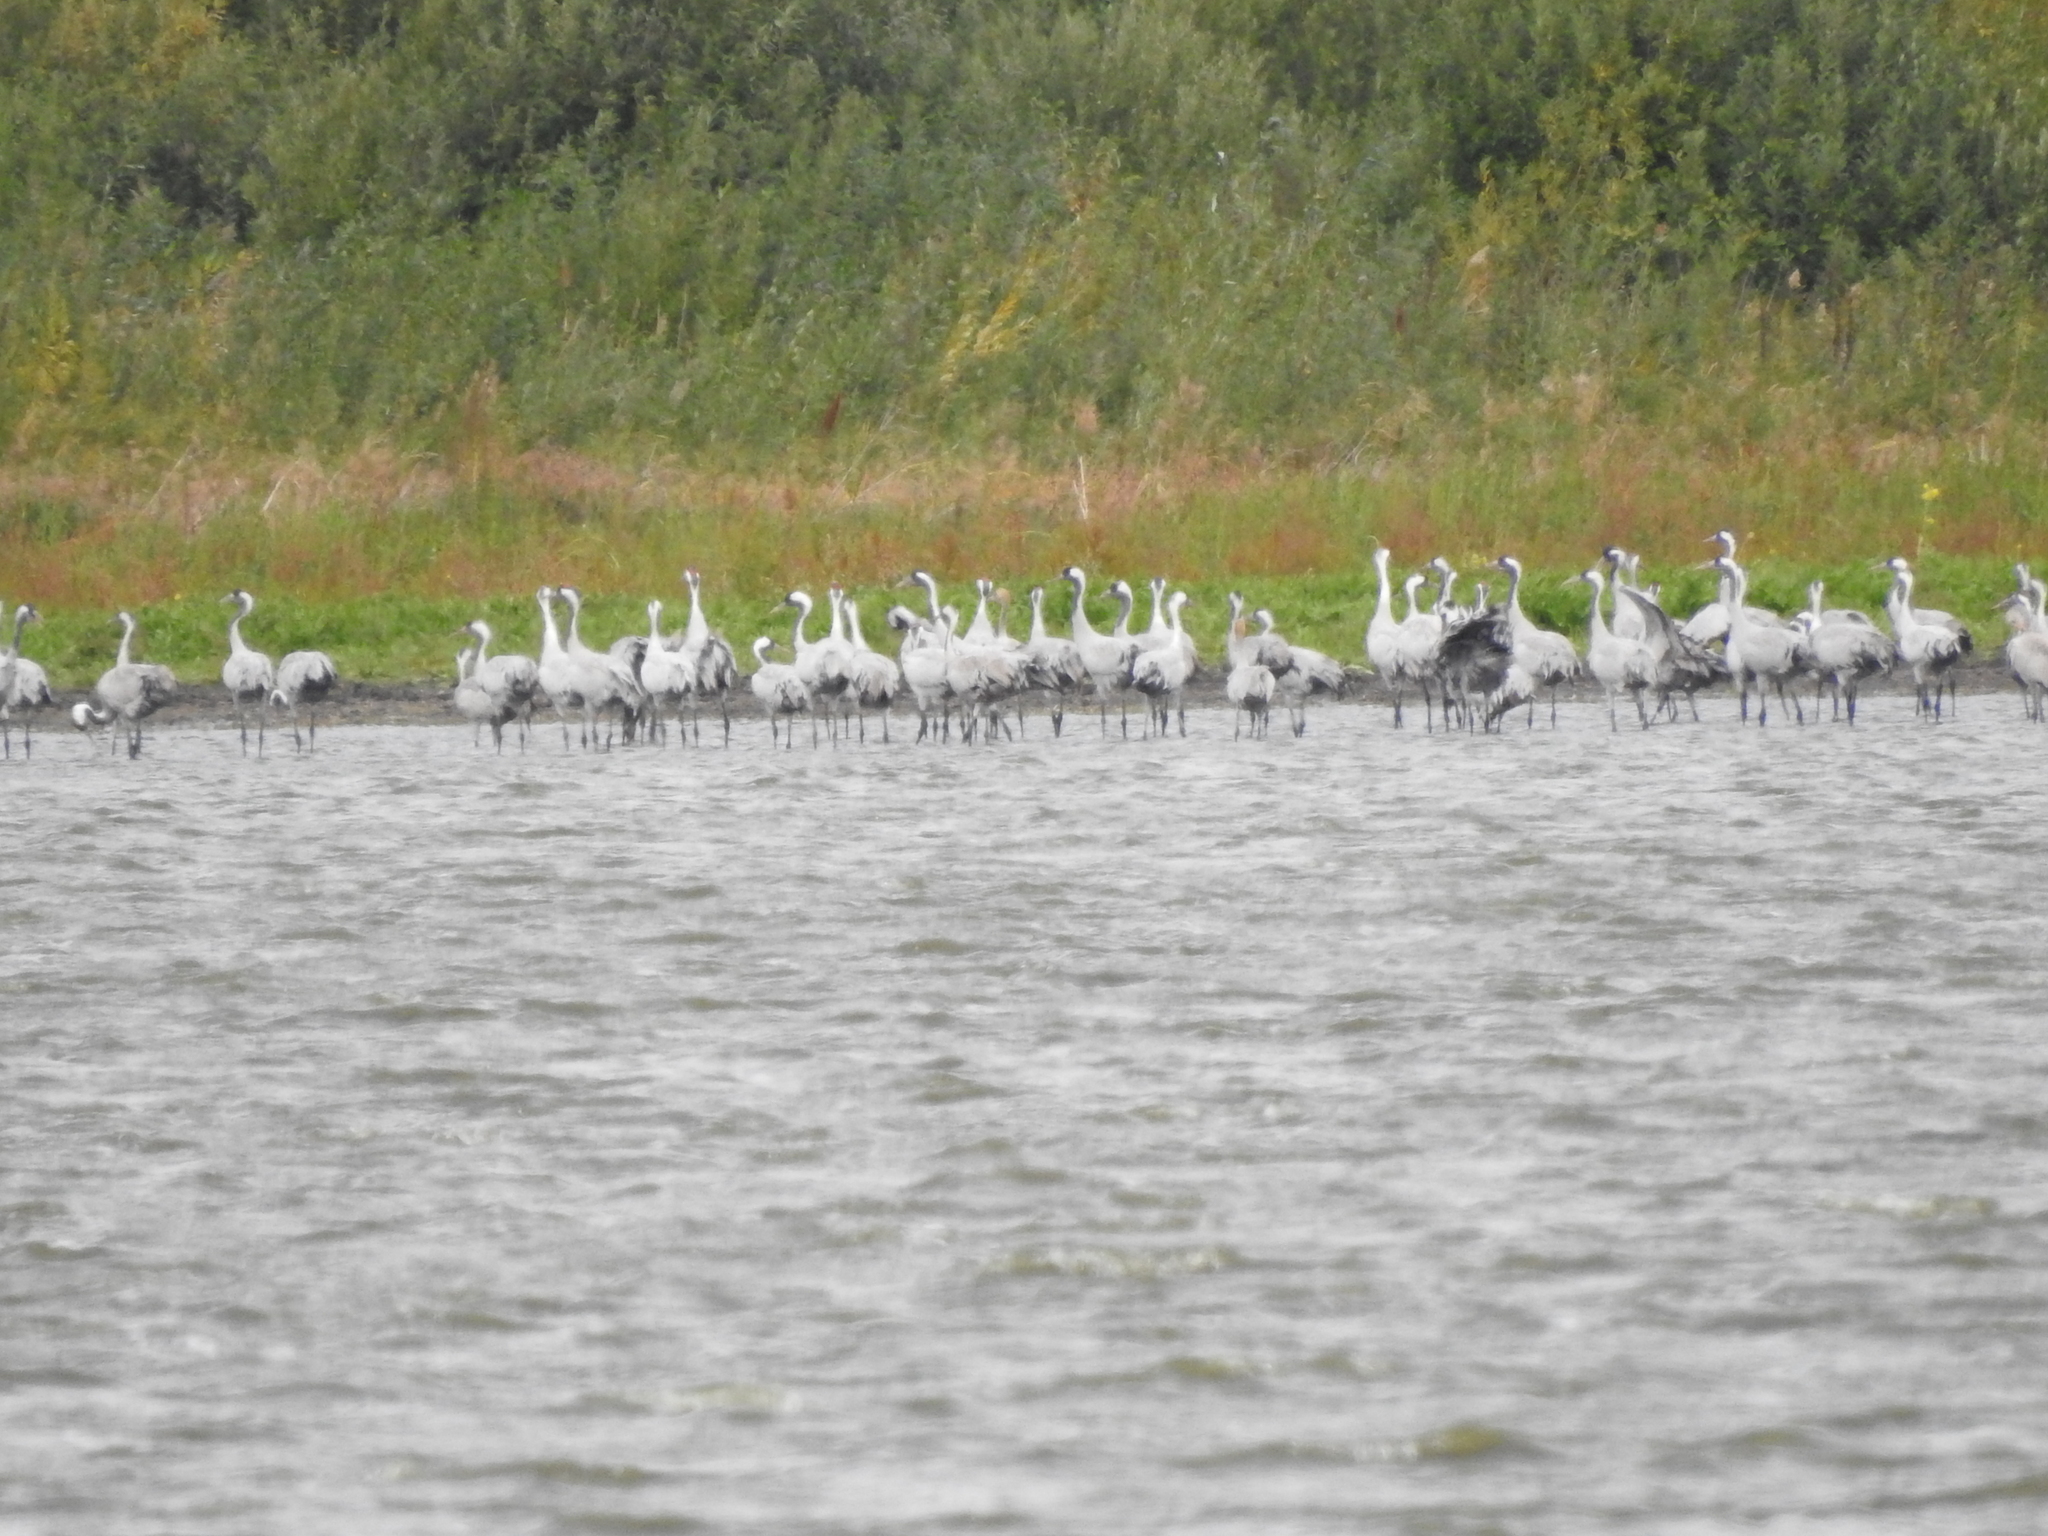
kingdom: Animalia
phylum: Chordata
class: Aves
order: Gruiformes
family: Gruidae
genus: Grus
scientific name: Grus grus
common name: Common crane
